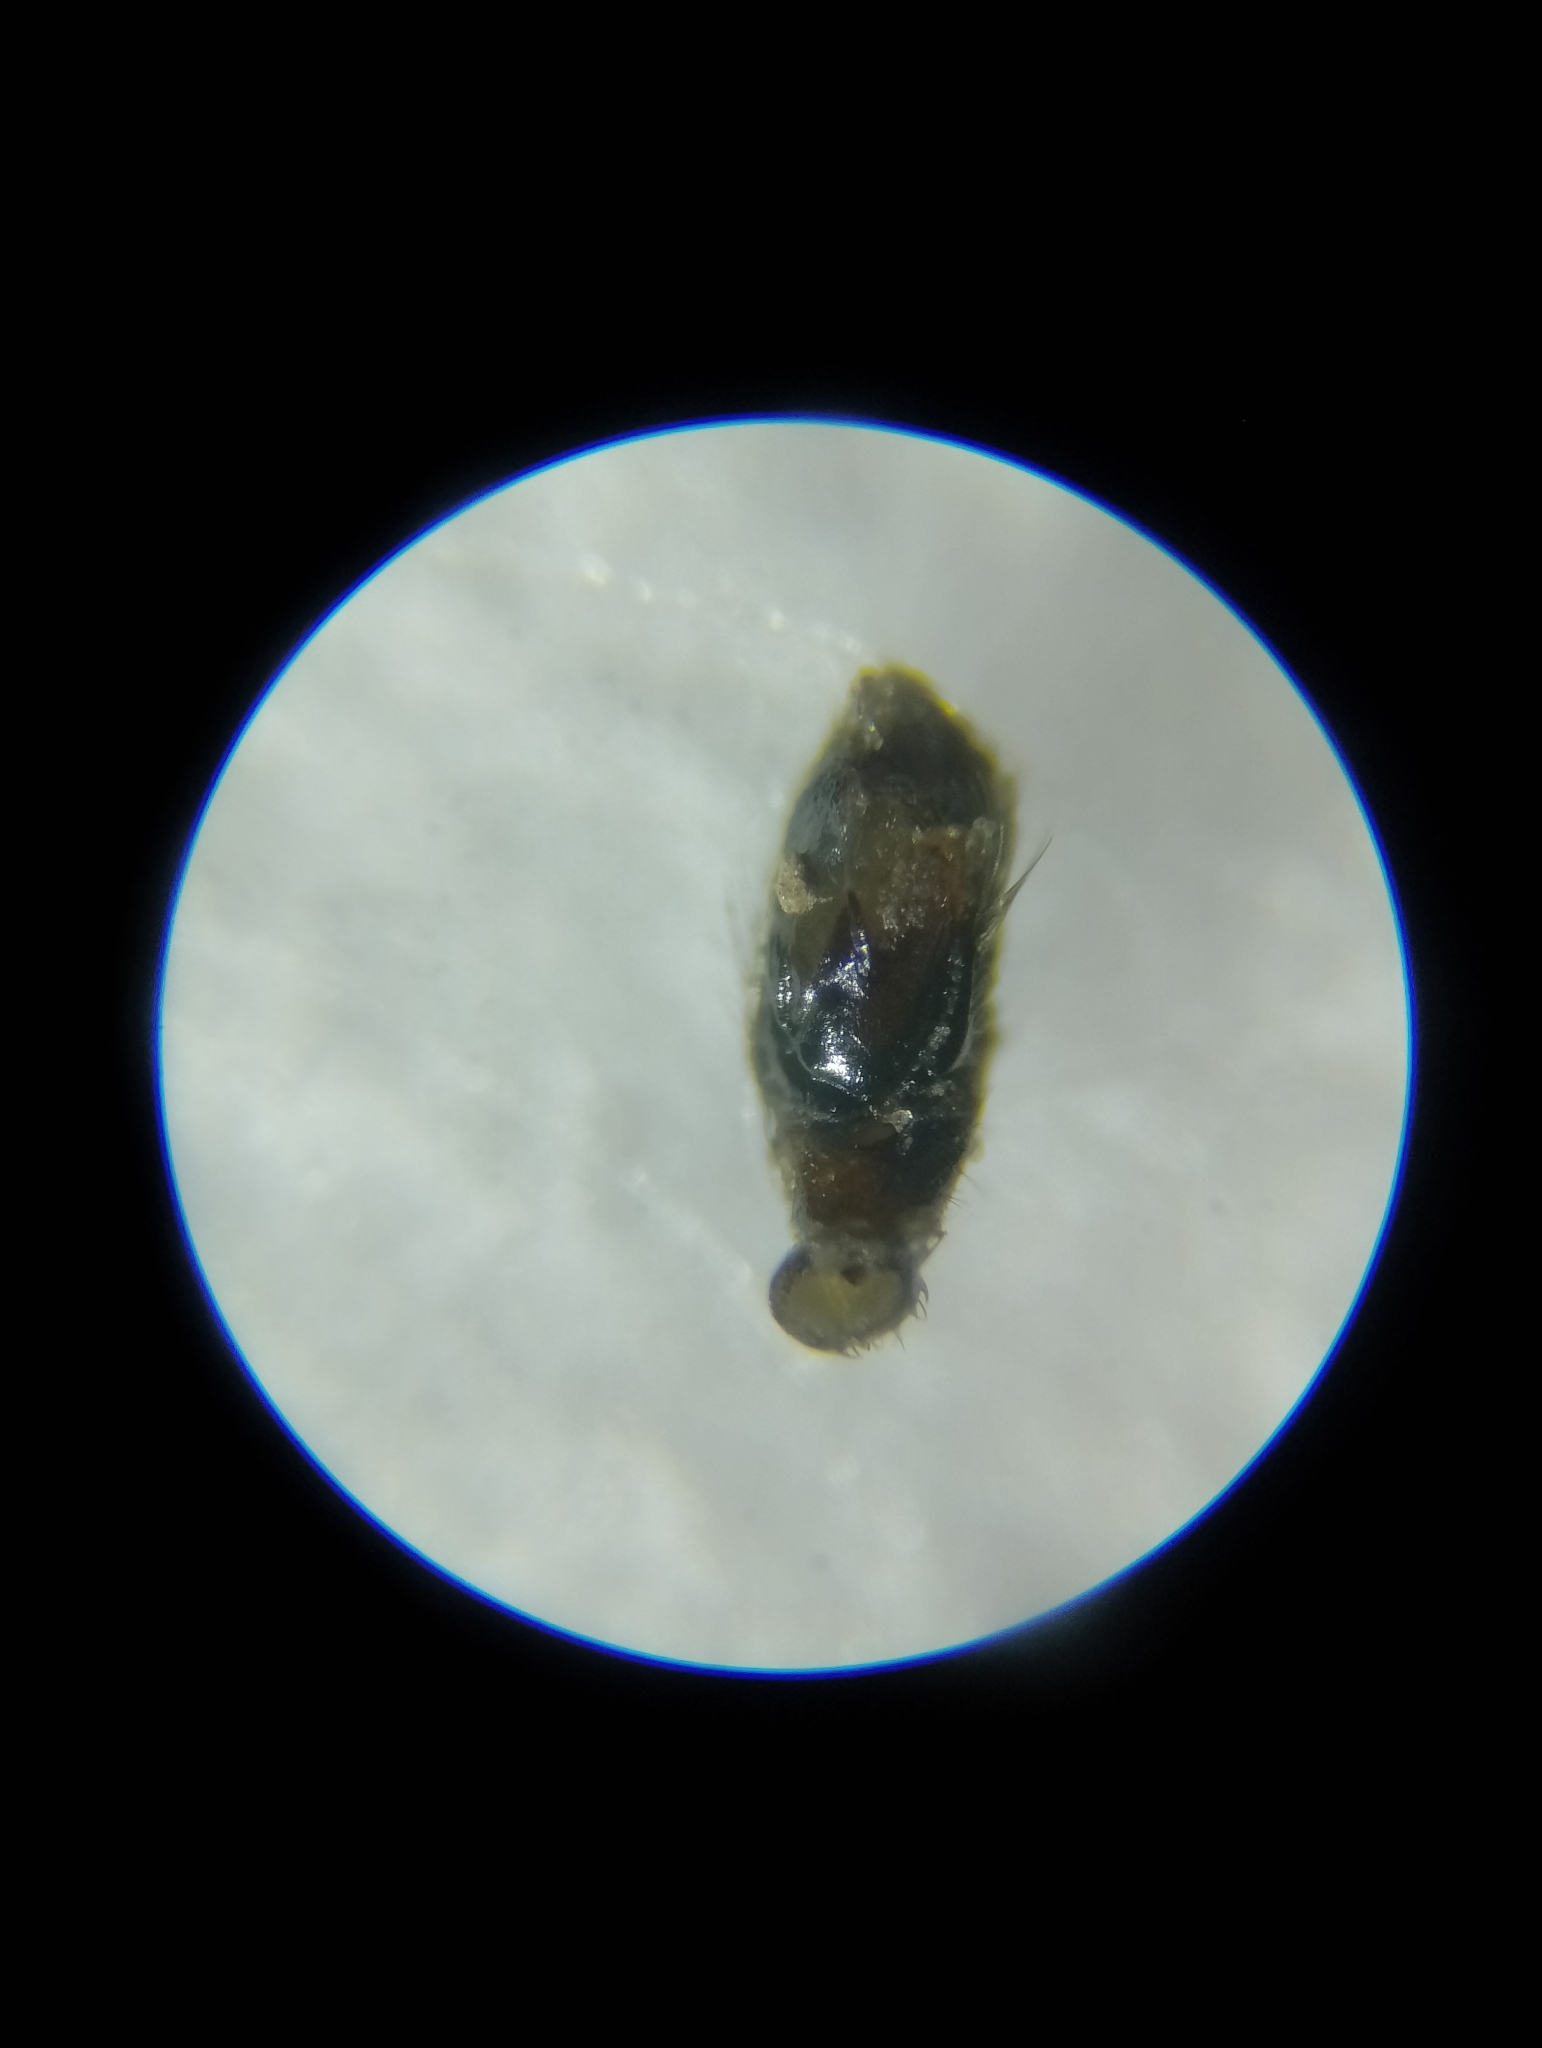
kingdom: Animalia
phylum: Arthropoda
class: Arachnida
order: Araneae
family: Gnaphosidae
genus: Zelotes
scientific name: Zelotes latreillei
